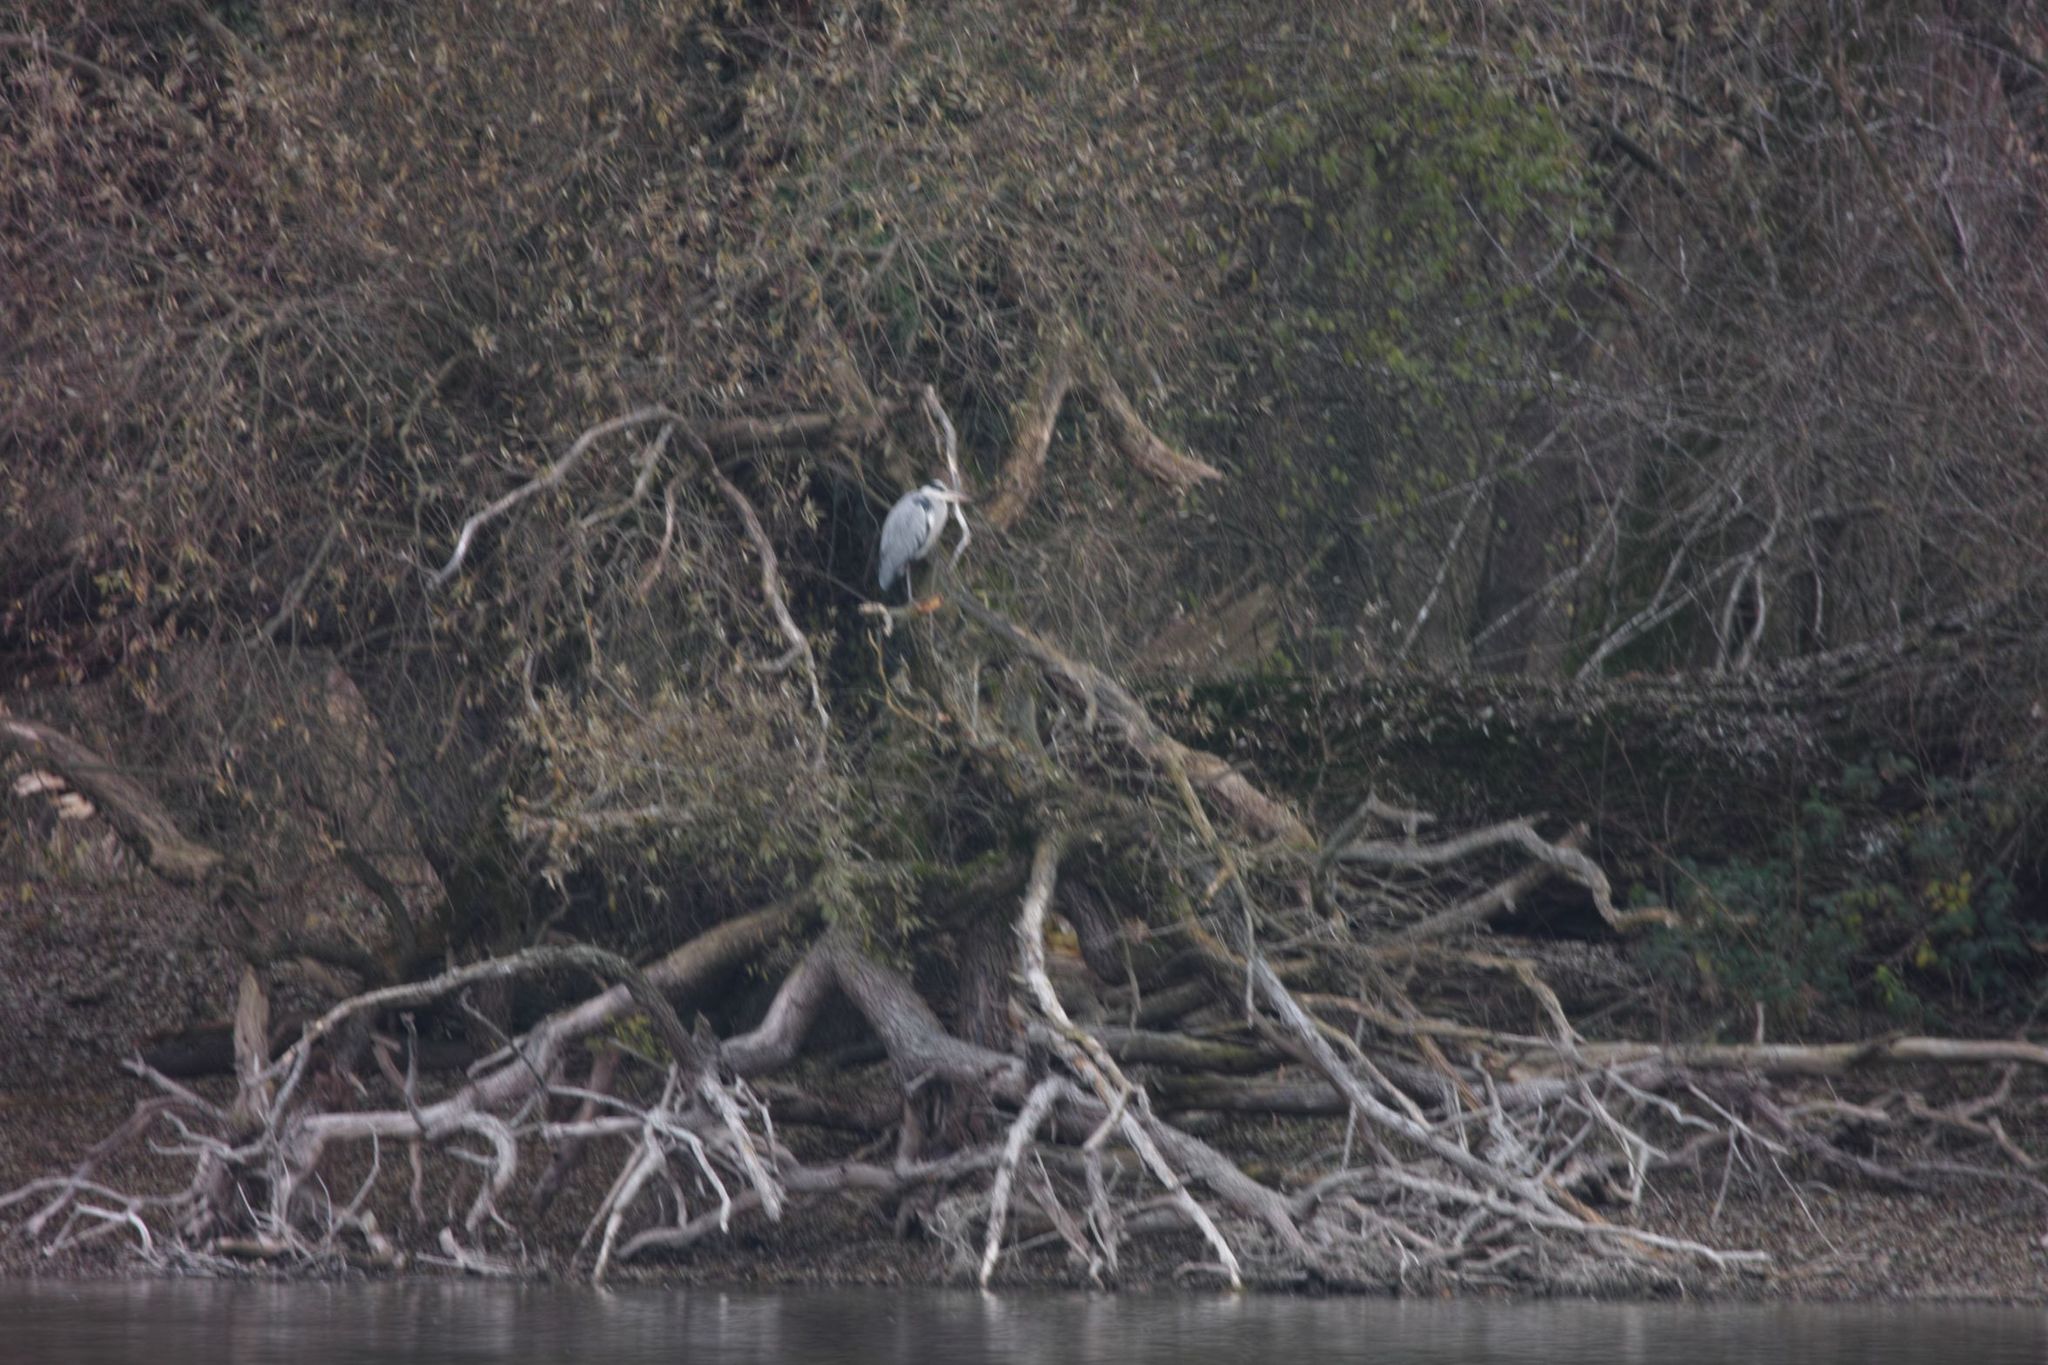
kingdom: Animalia
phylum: Chordata
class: Aves
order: Pelecaniformes
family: Ardeidae
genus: Ardea
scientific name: Ardea cinerea
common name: Grey heron
